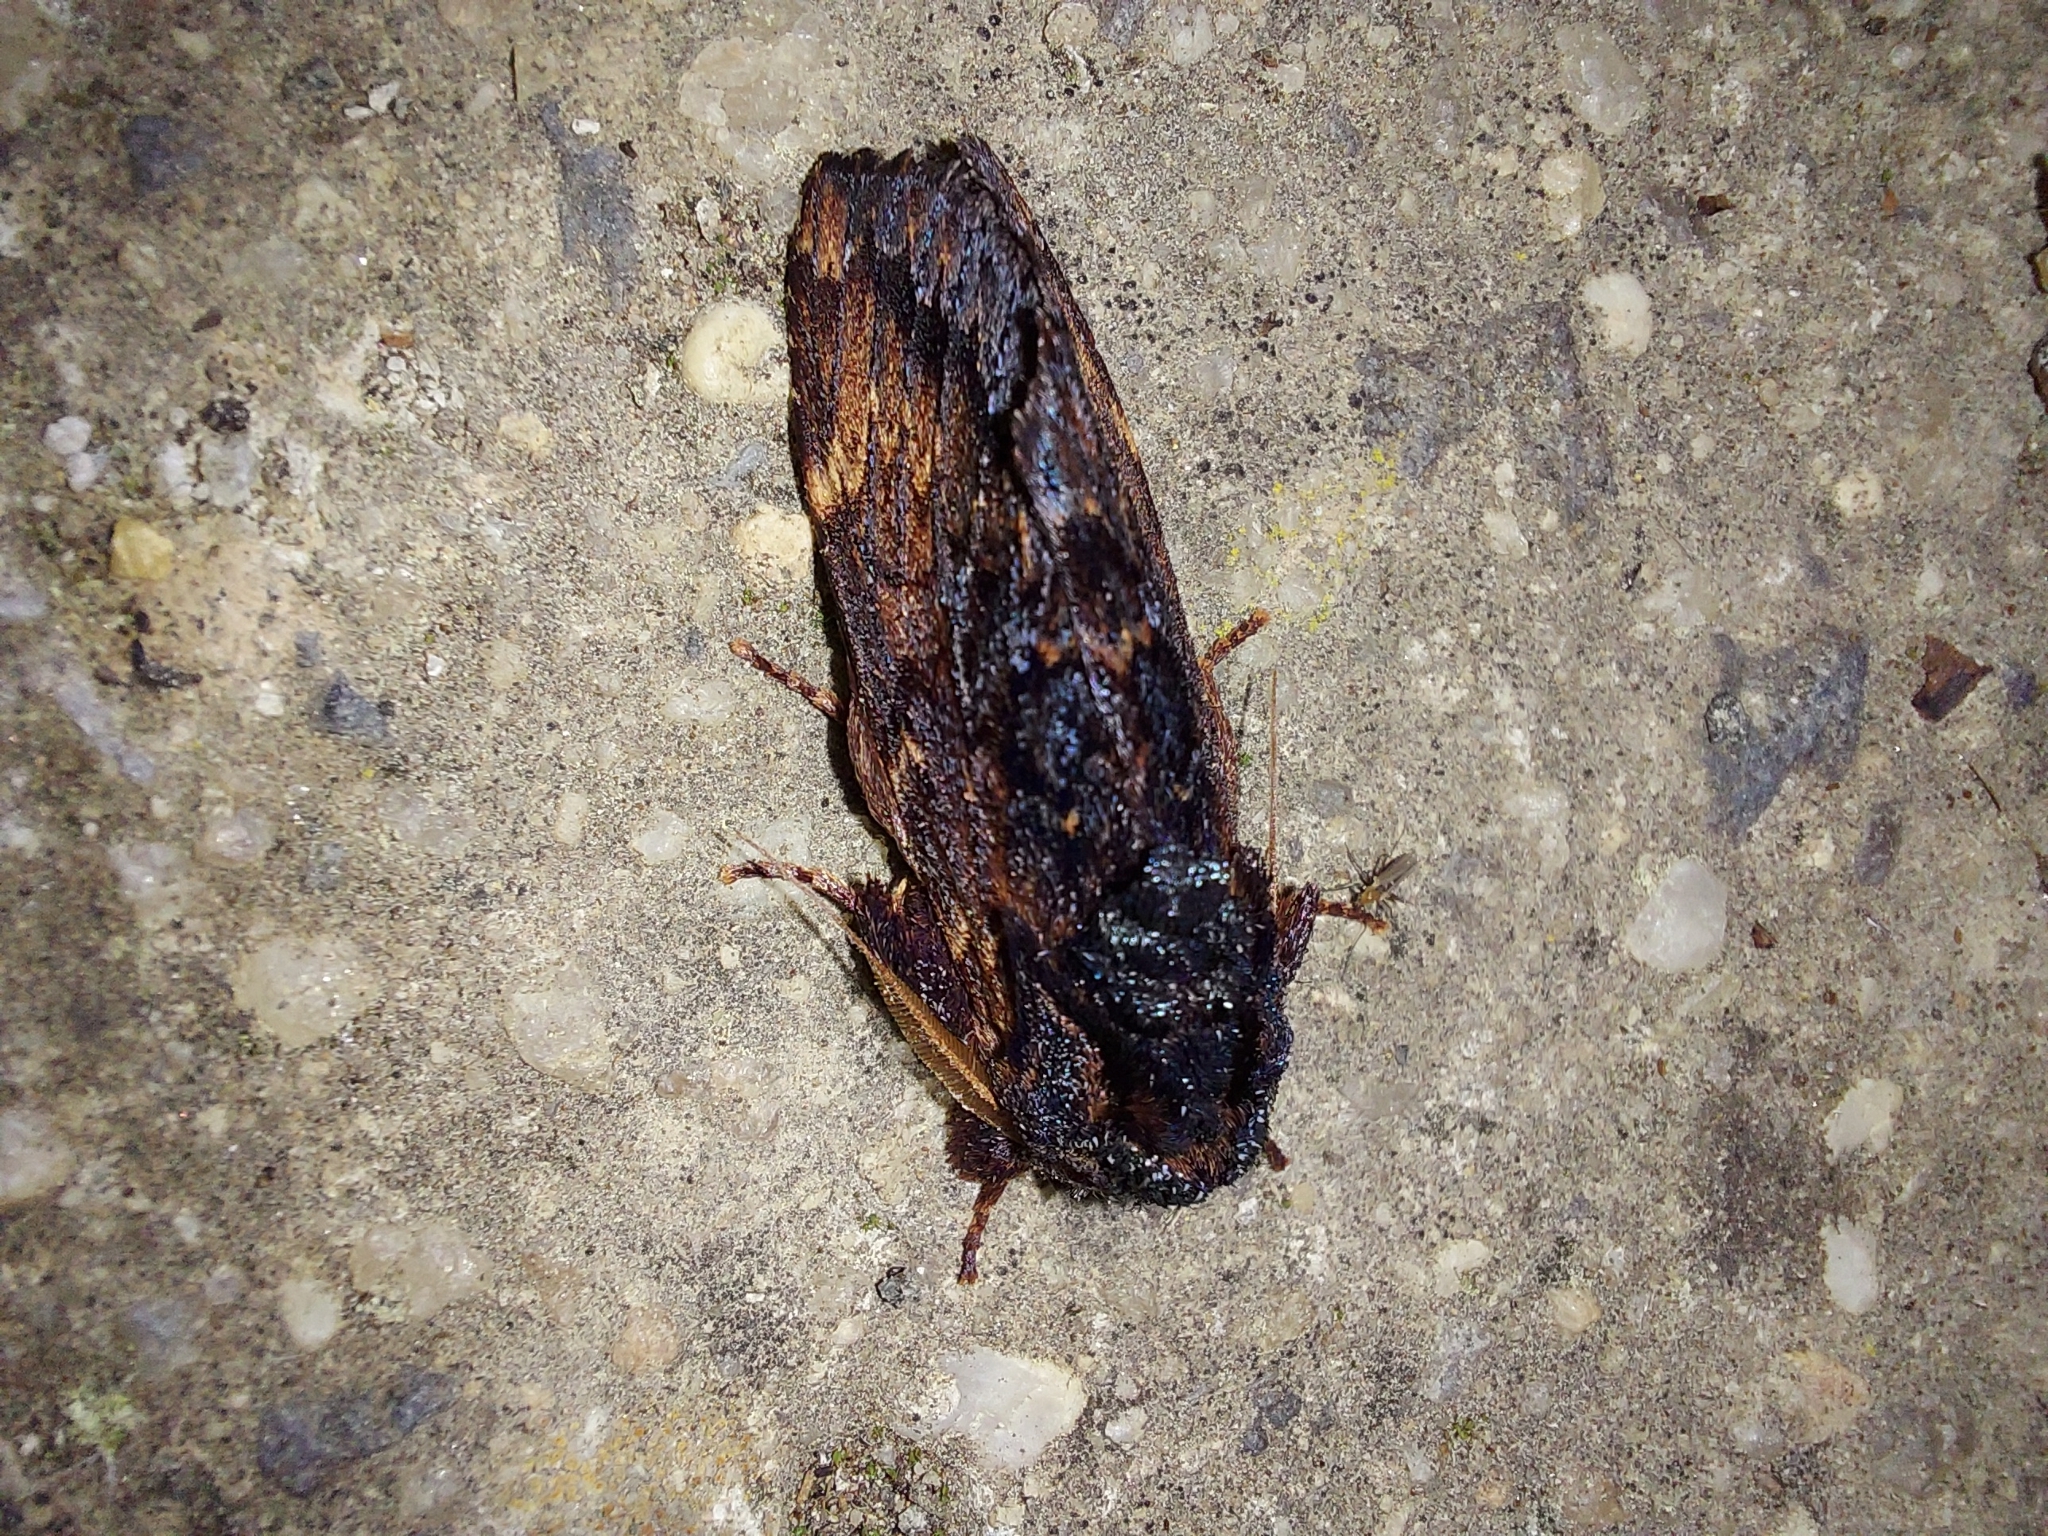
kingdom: Animalia
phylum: Arthropoda
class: Insecta
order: Lepidoptera
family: Notodontidae
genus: Sorama
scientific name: Sorama bicolor
